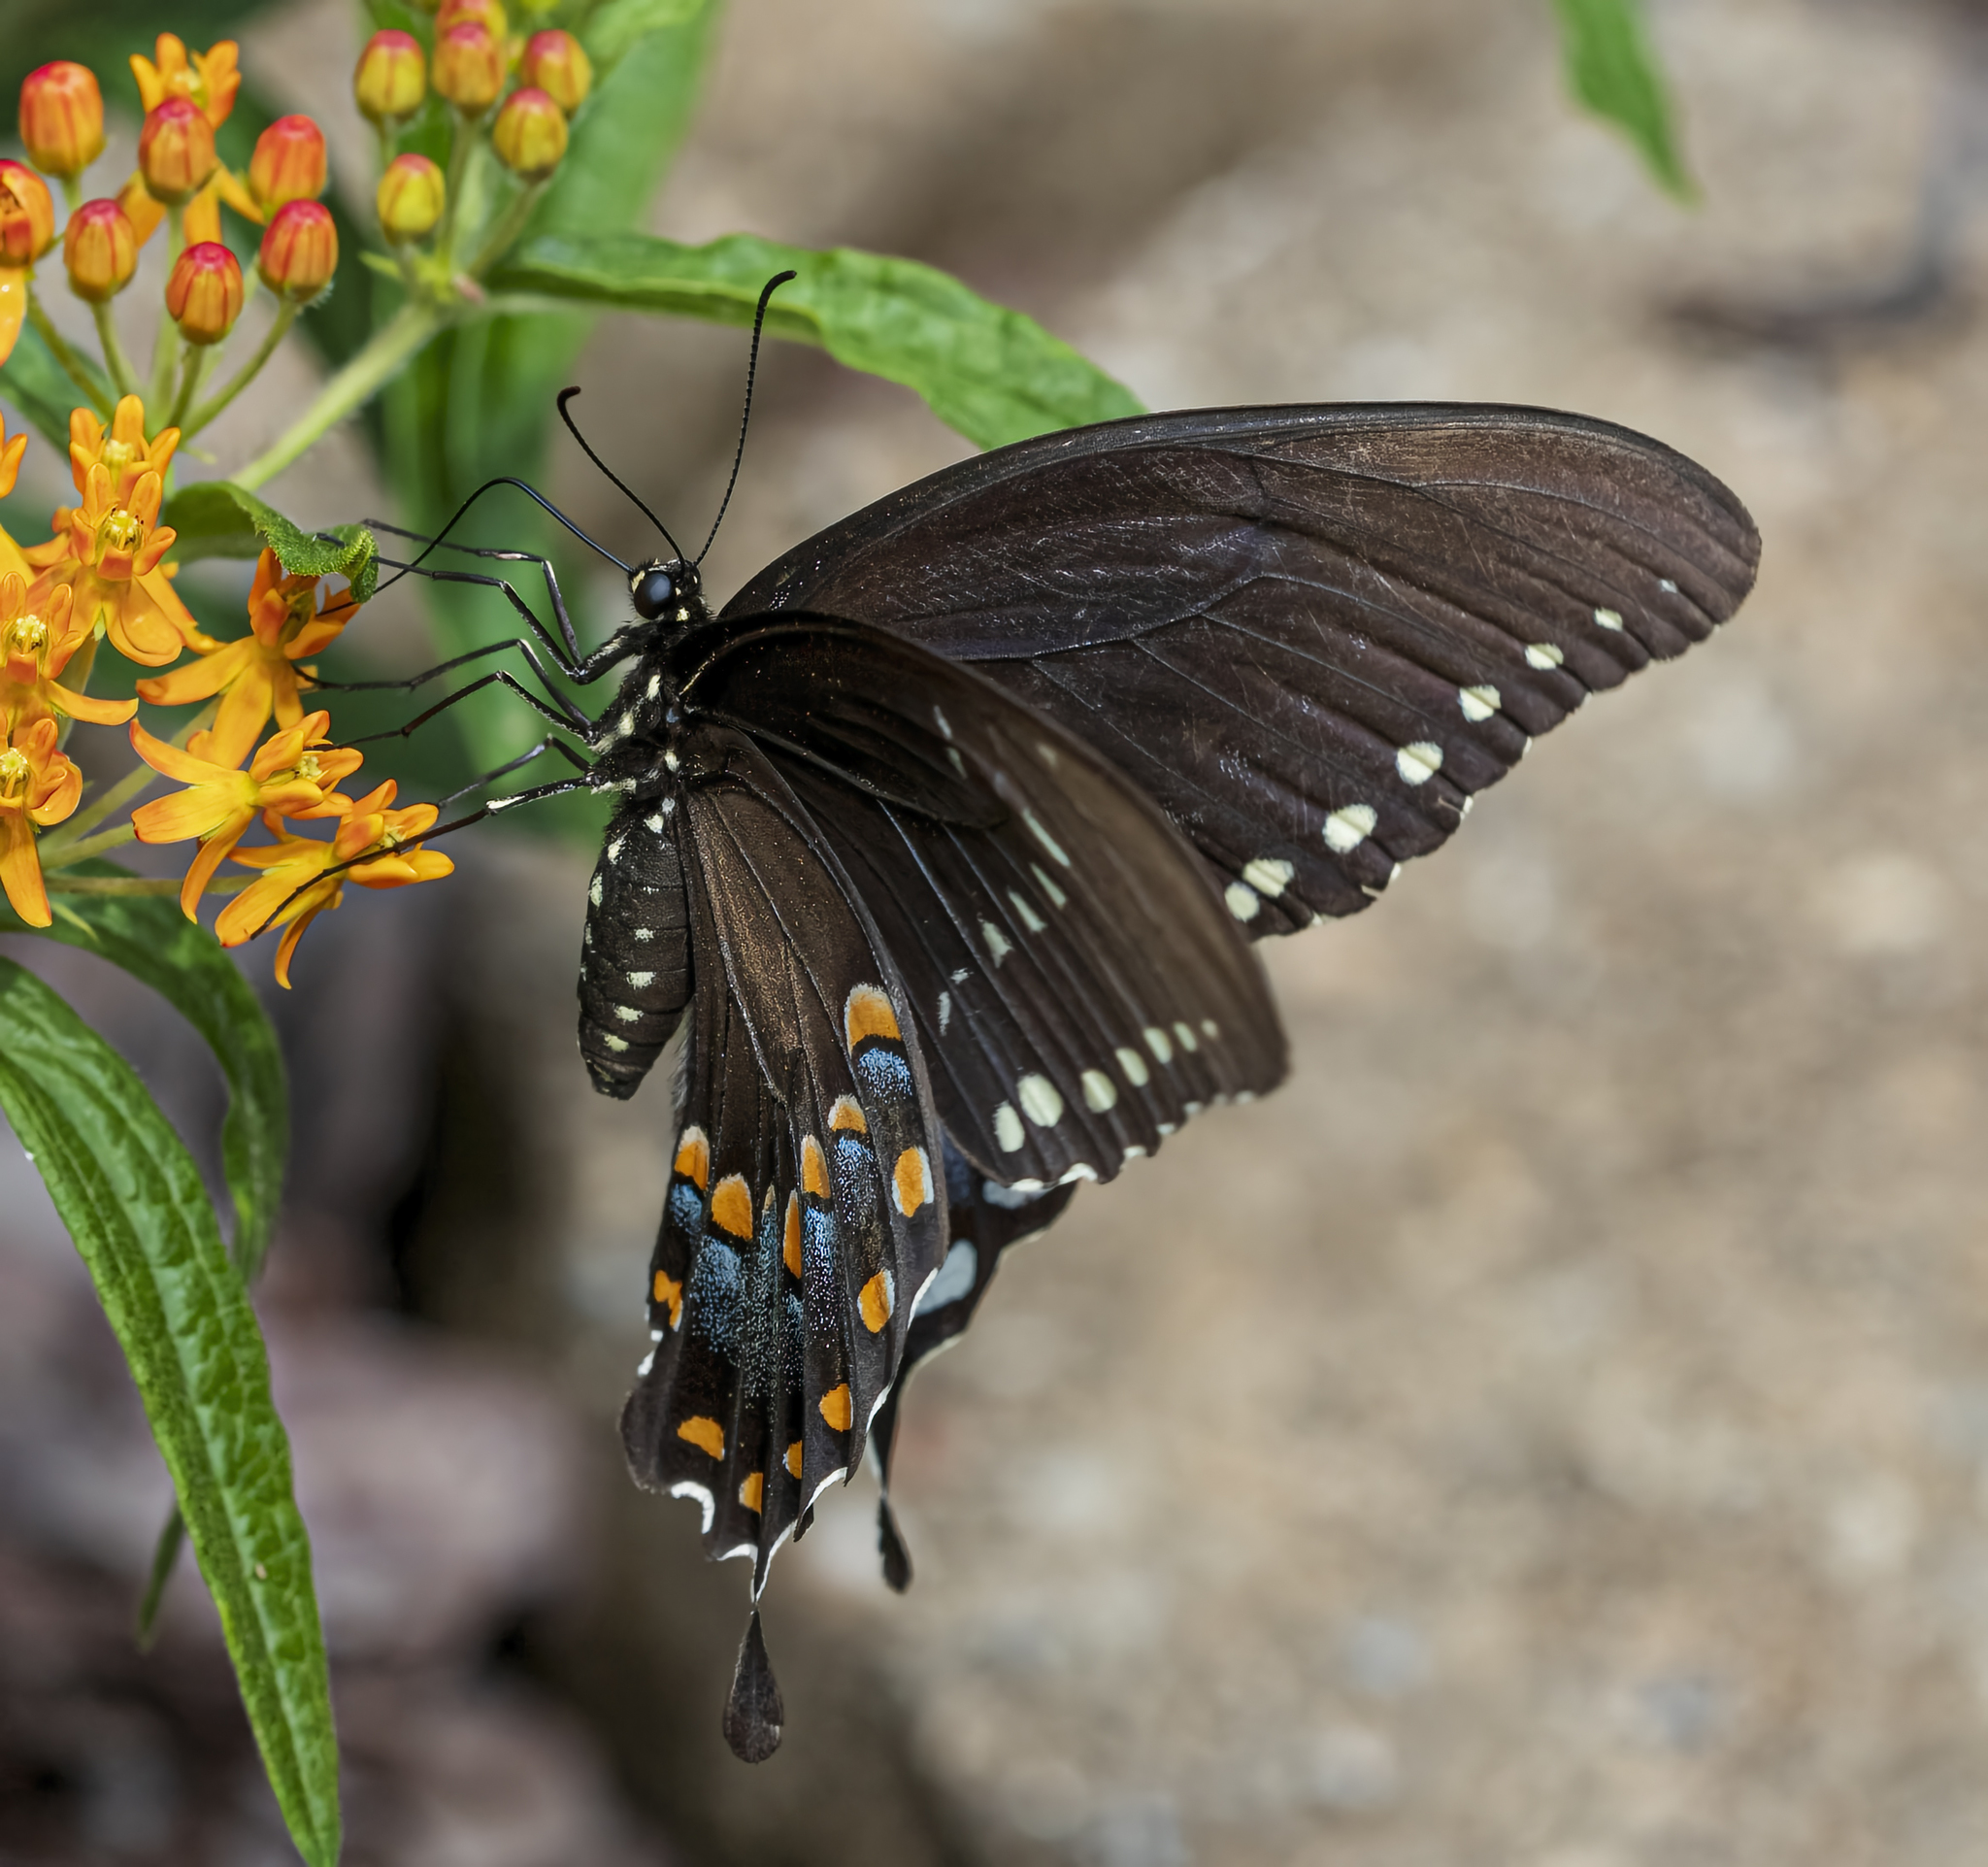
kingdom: Animalia
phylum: Arthropoda
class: Insecta
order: Lepidoptera
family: Papilionidae
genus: Papilio
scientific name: Papilio troilus
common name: Spicebush swallowtail
